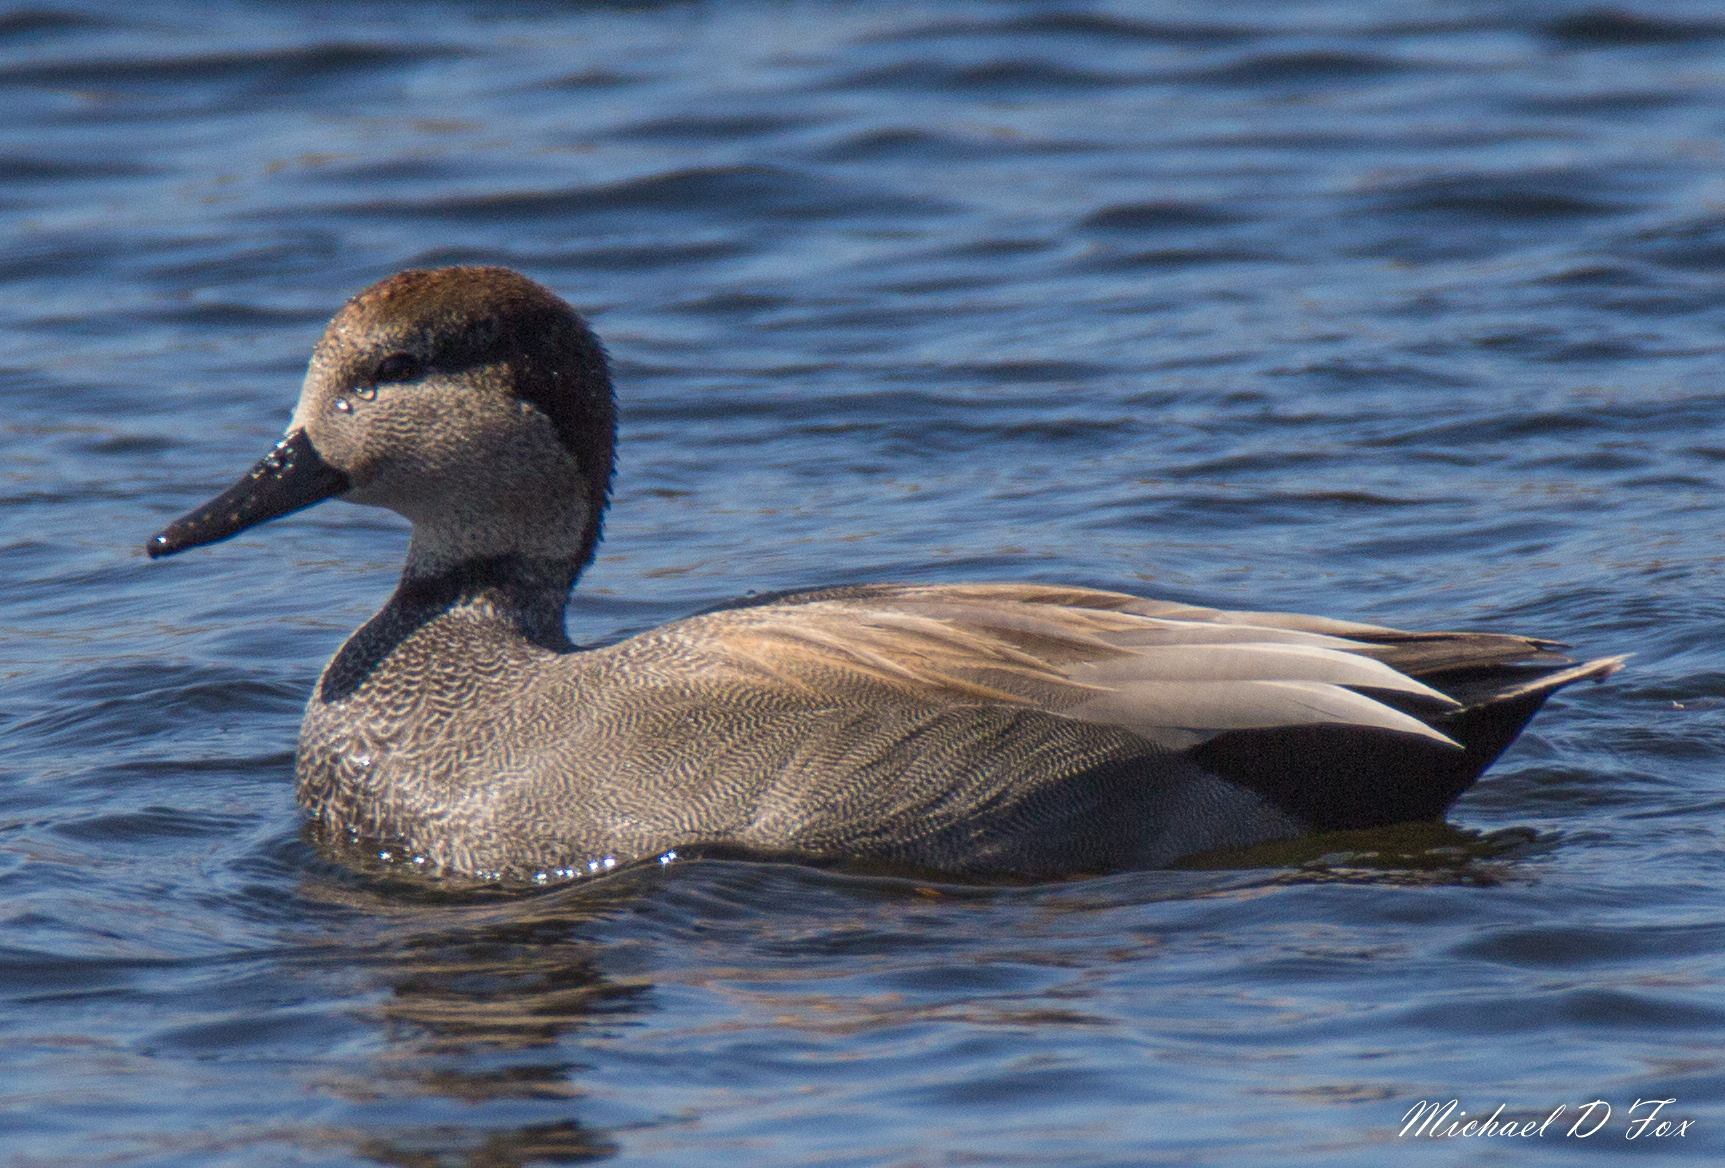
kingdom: Animalia
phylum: Chordata
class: Aves
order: Anseriformes
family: Anatidae
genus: Mareca
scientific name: Mareca strepera
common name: Gadwall
